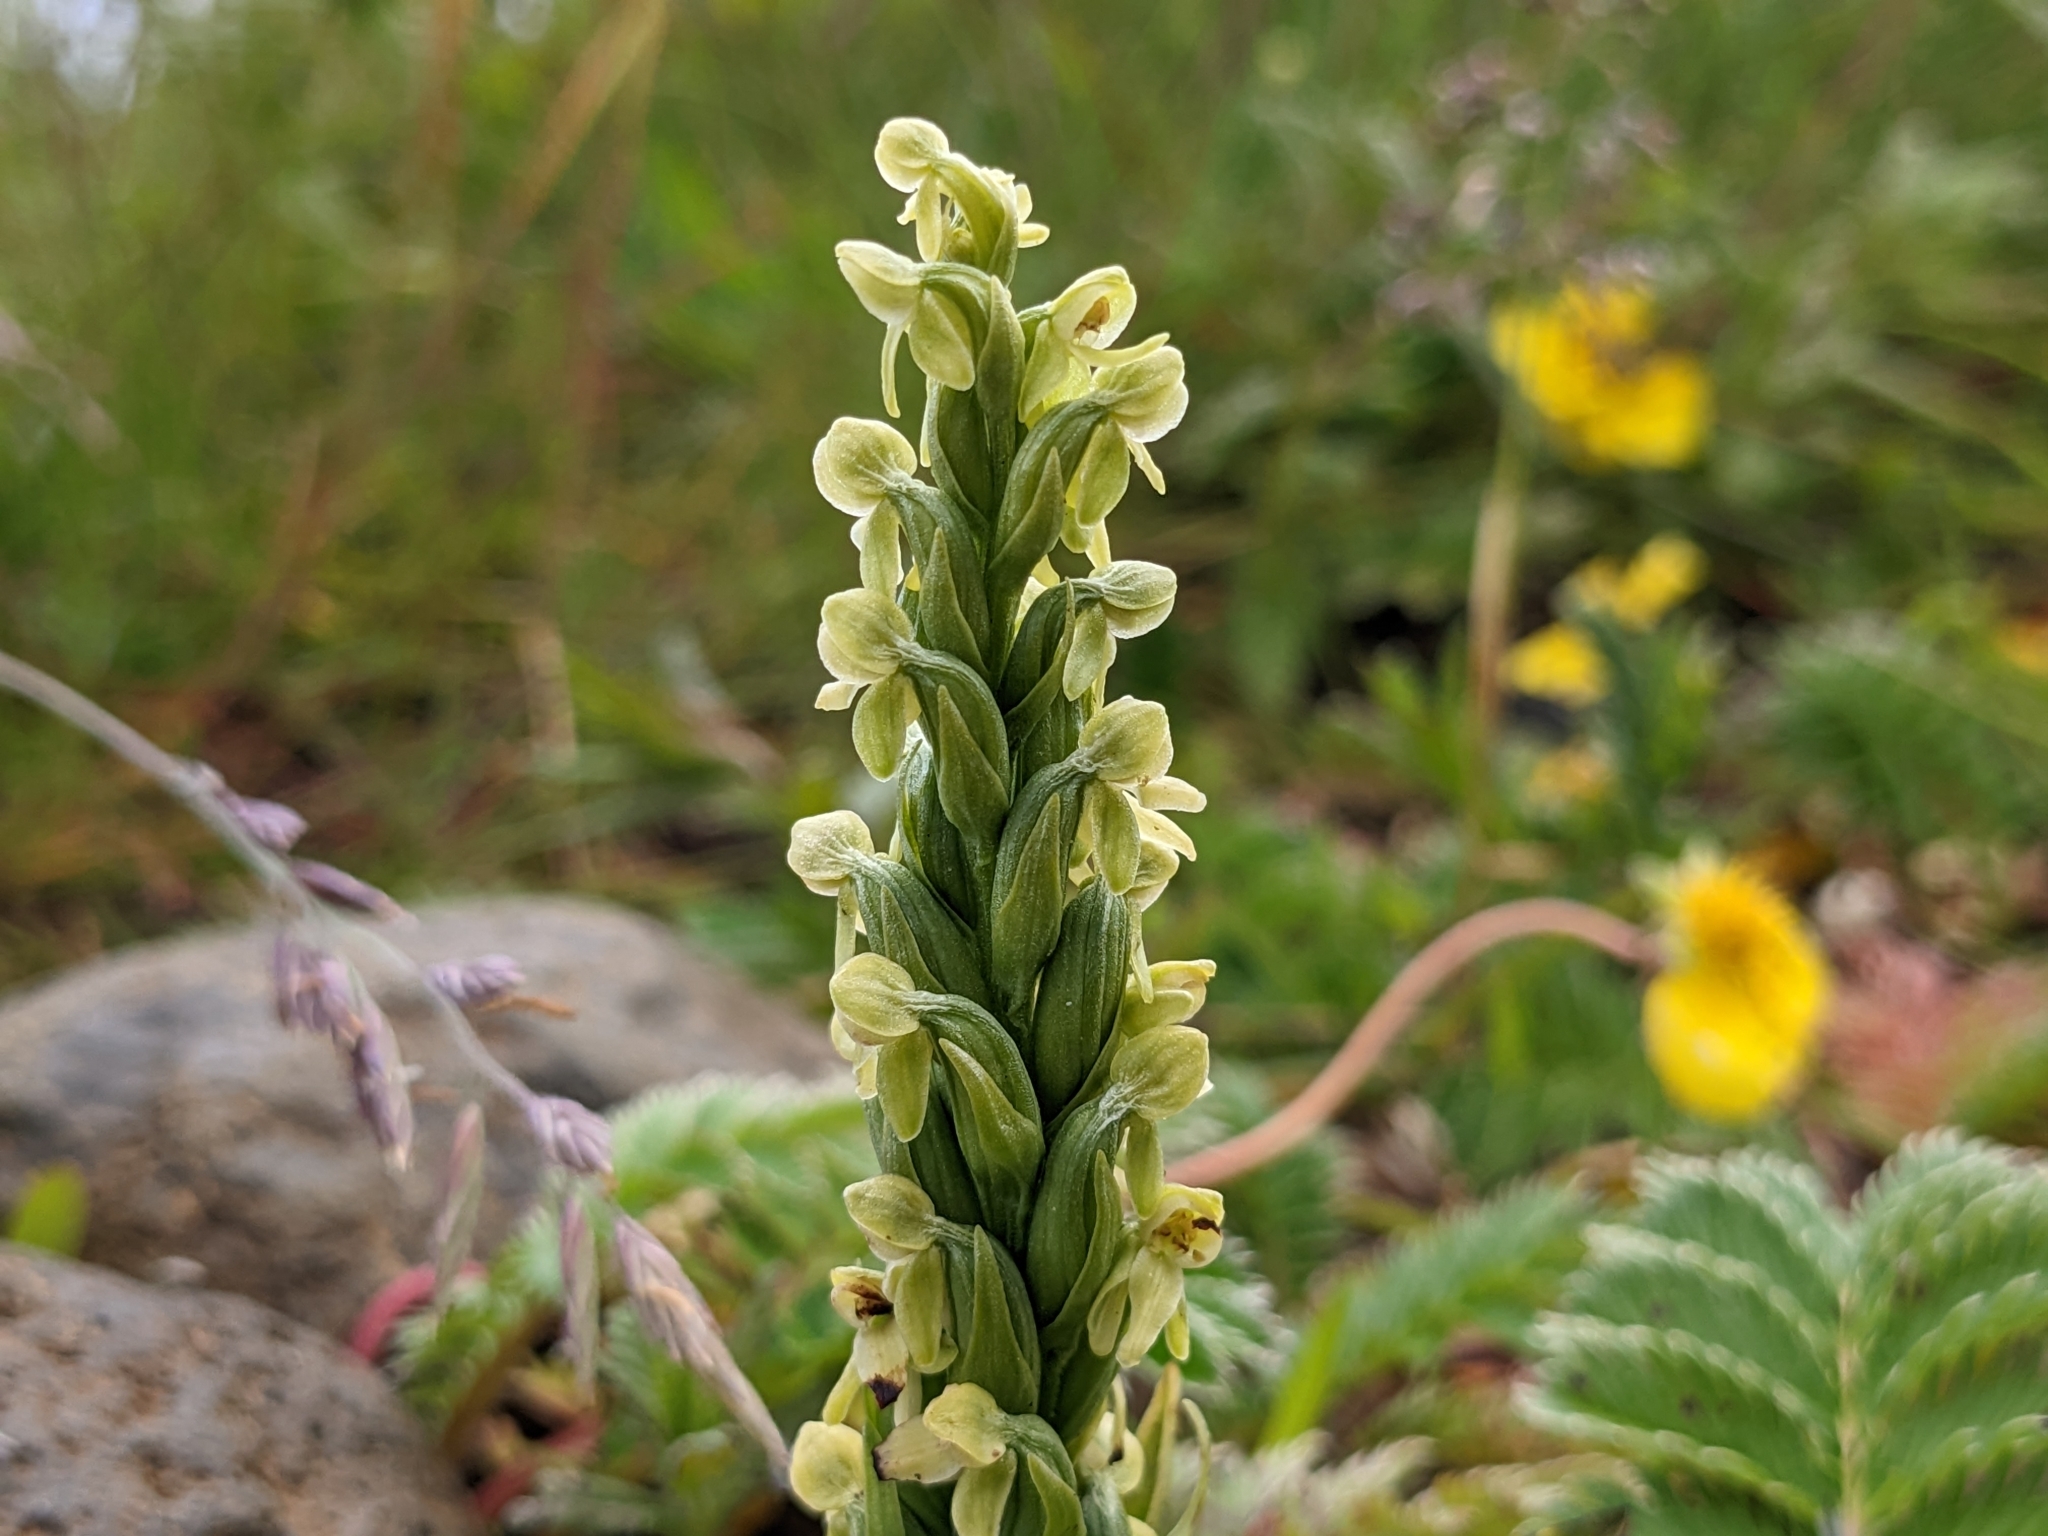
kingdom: Plantae
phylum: Tracheophyta
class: Liliopsida
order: Asparagales
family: Orchidaceae
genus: Platanthera
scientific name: Platanthera hyperborea
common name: Northern green orchid
